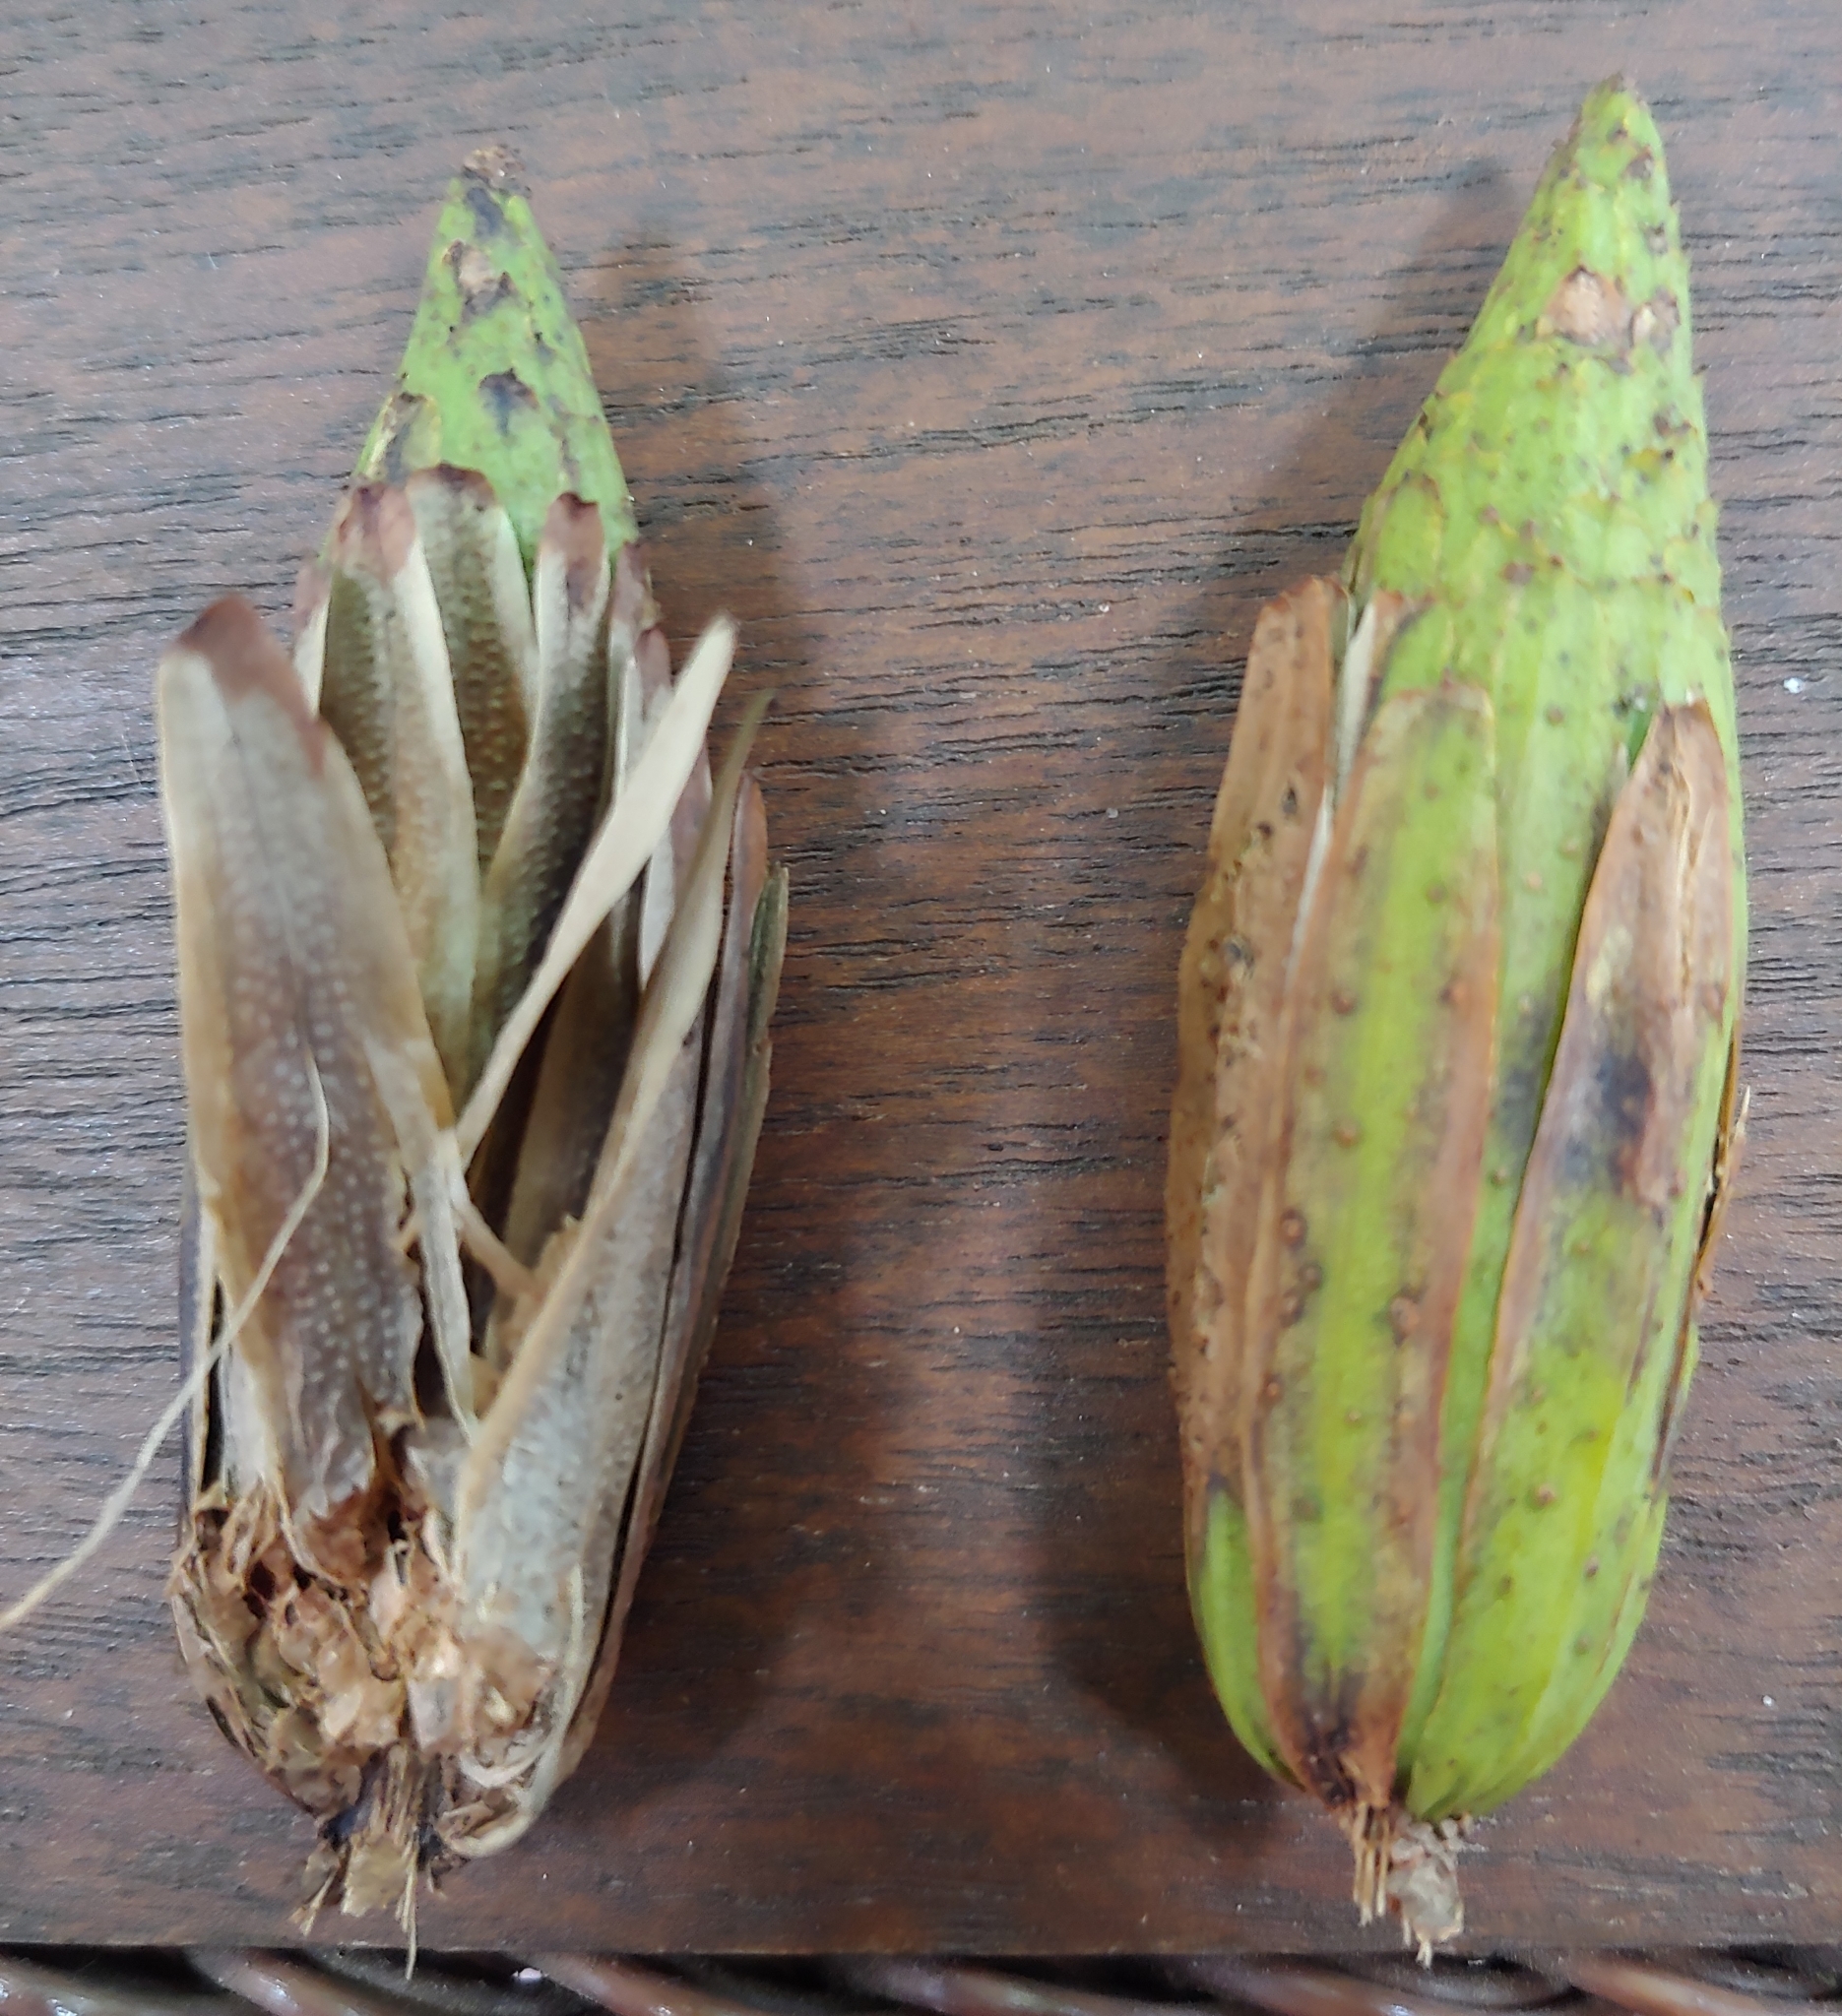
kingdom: Plantae
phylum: Tracheophyta
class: Magnoliopsida
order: Magnoliales
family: Magnoliaceae
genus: Liriodendron
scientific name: Liriodendron tulipifera
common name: Tulip tree
